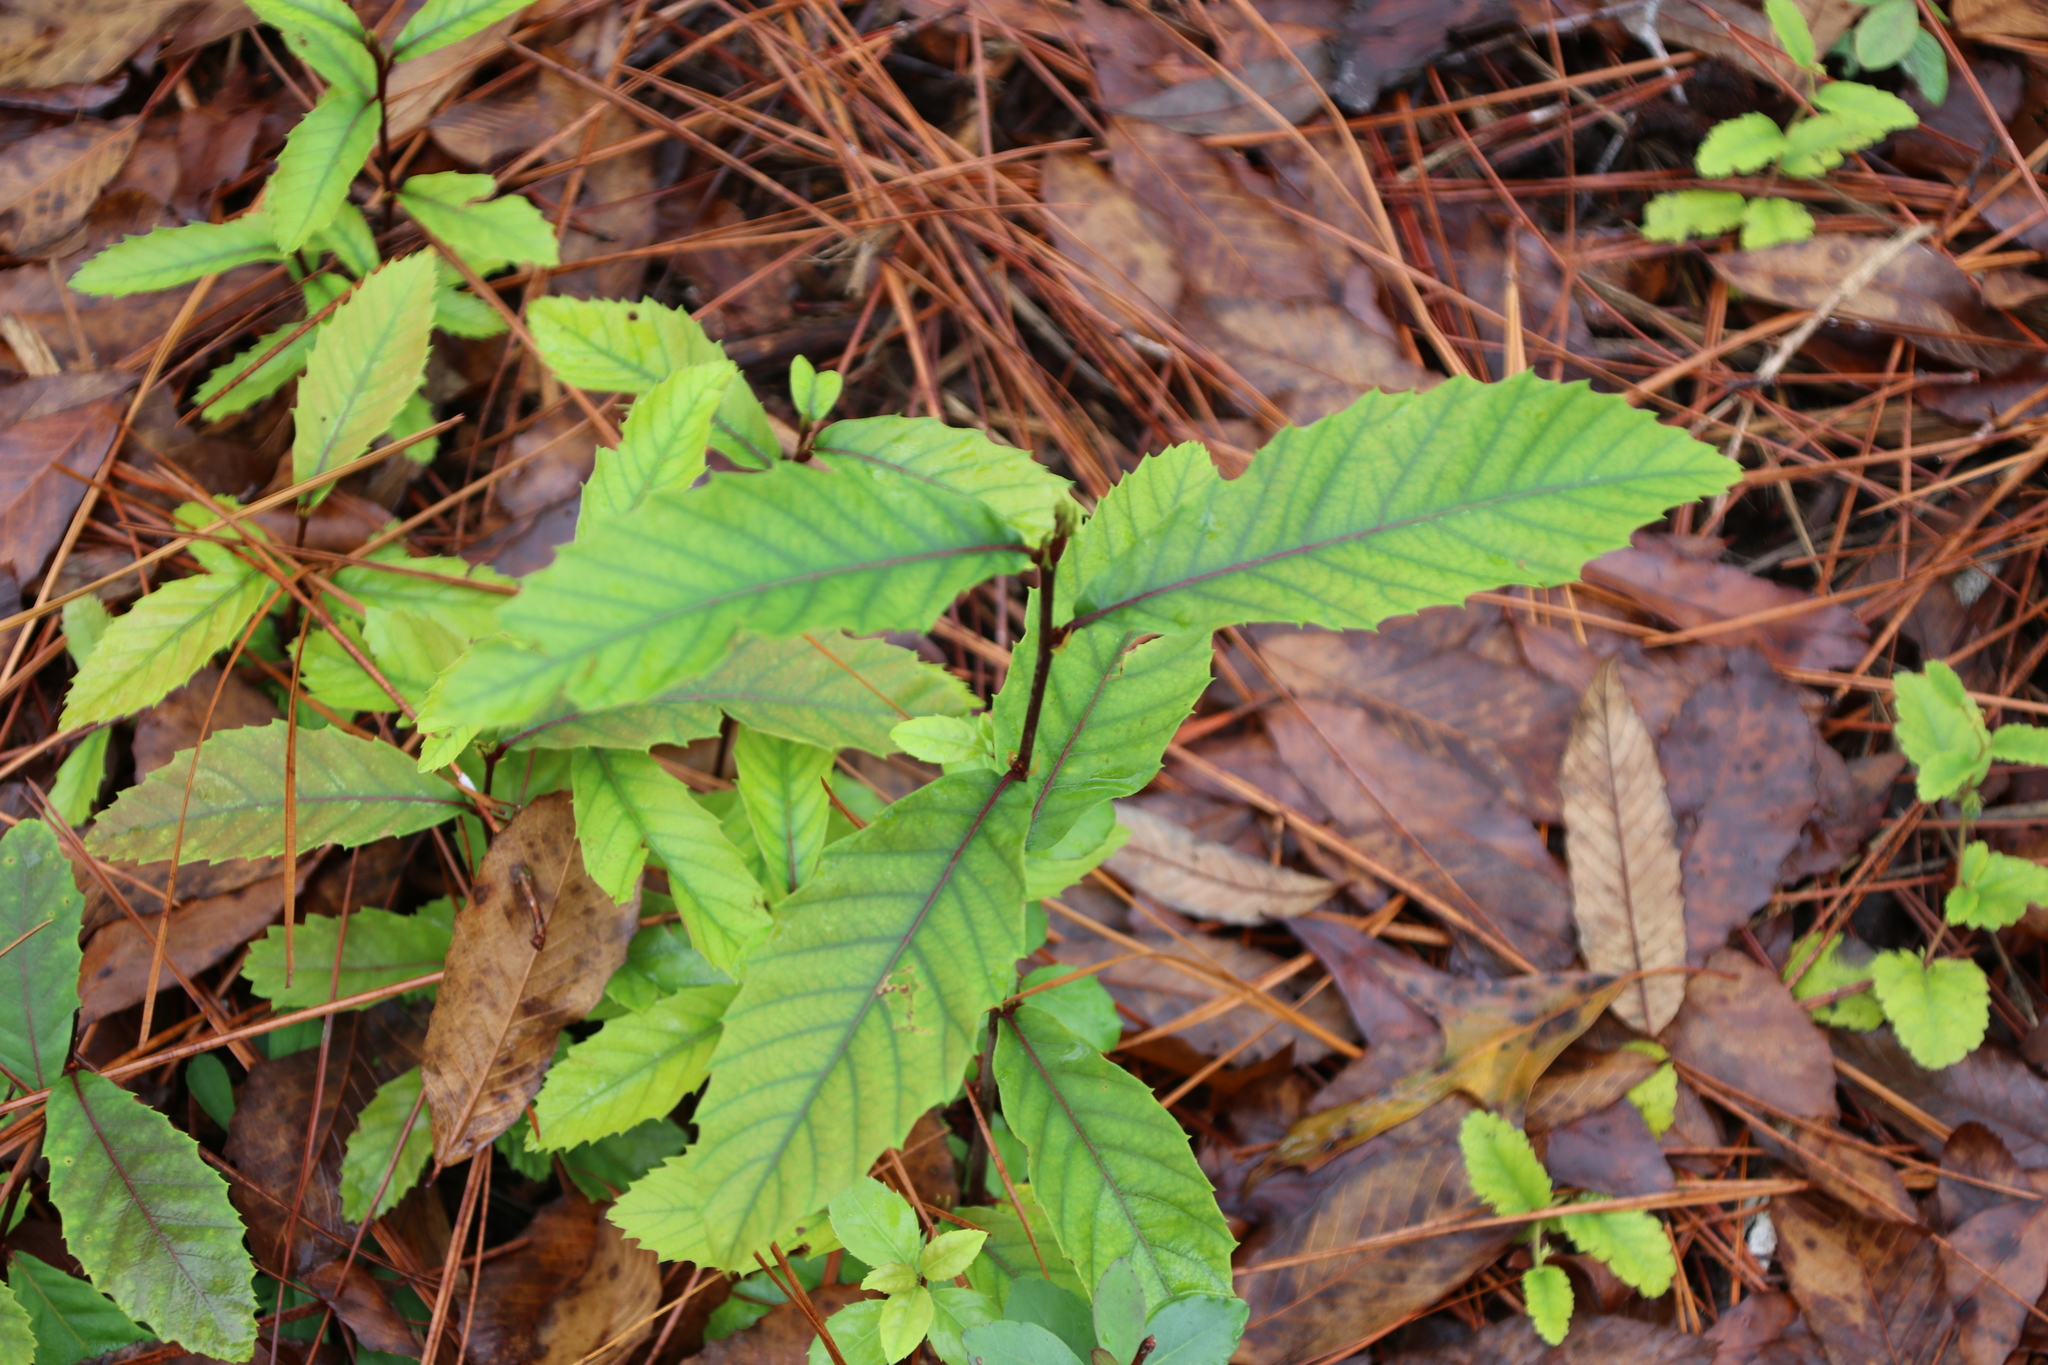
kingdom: Plantae
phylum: Tracheophyta
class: Magnoliopsida
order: Fagales
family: Fagaceae
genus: Castanea
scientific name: Castanea pumila
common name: Chinkapin
